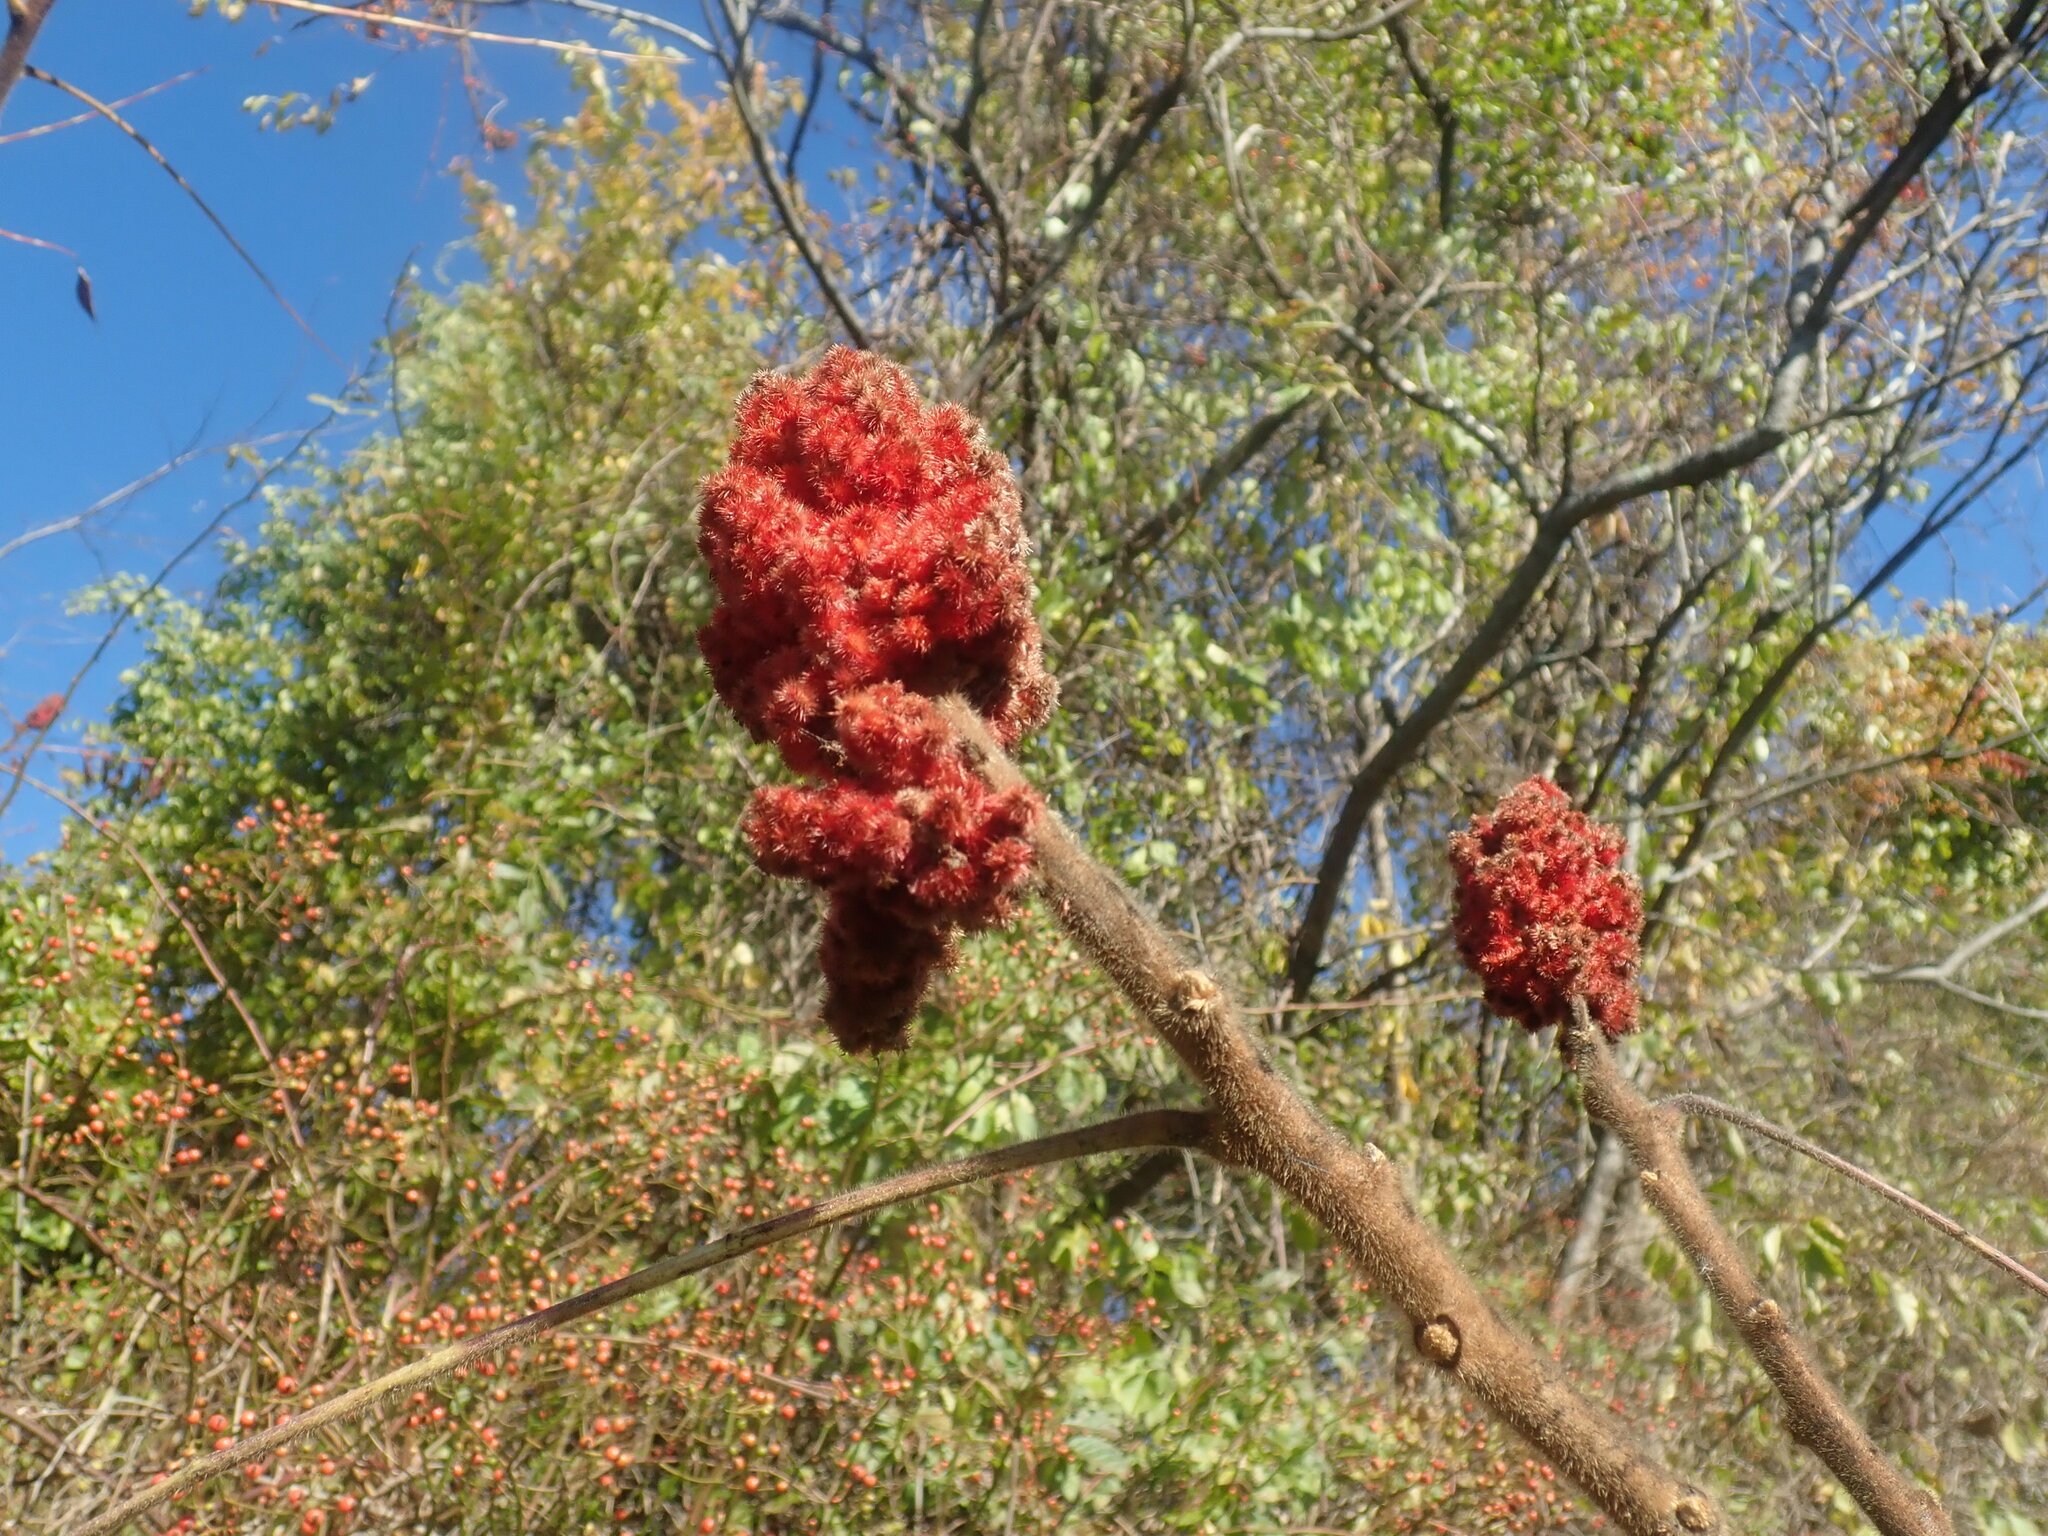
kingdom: Plantae
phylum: Tracheophyta
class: Magnoliopsida
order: Sapindales
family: Anacardiaceae
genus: Rhus
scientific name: Rhus typhina
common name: Staghorn sumac
